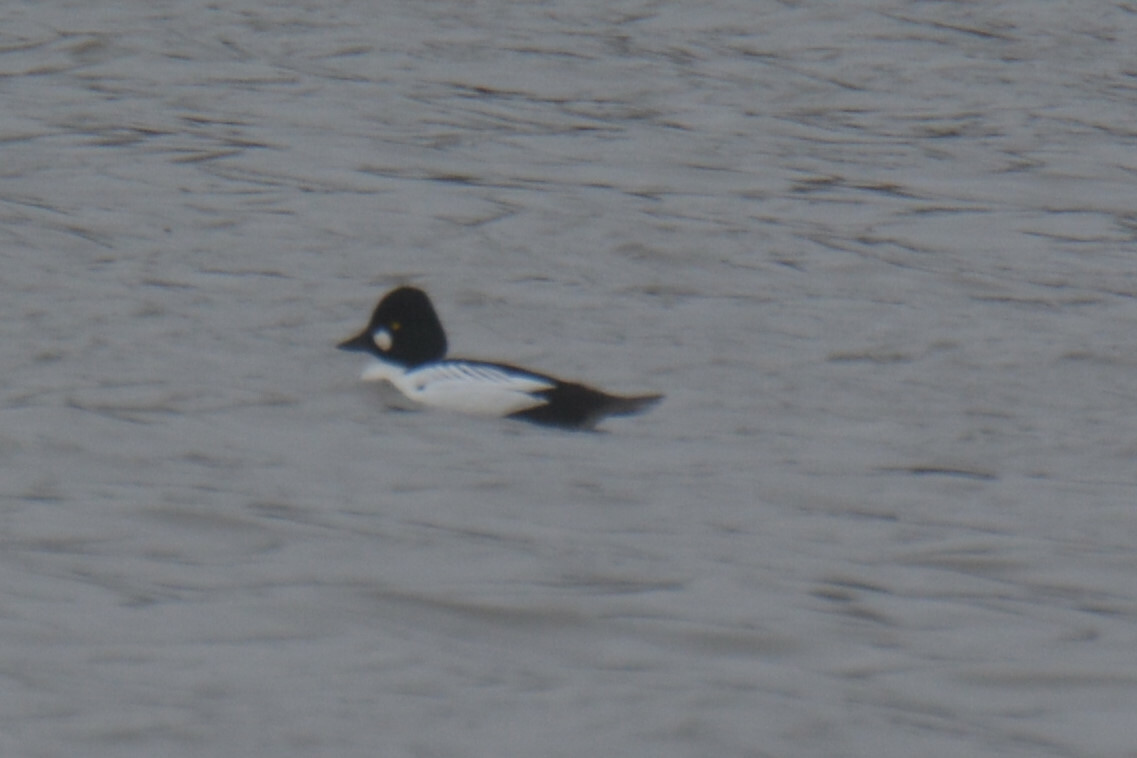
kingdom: Animalia
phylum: Chordata
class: Aves
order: Anseriformes
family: Anatidae
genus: Bucephala
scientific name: Bucephala clangula
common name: Common goldeneye
